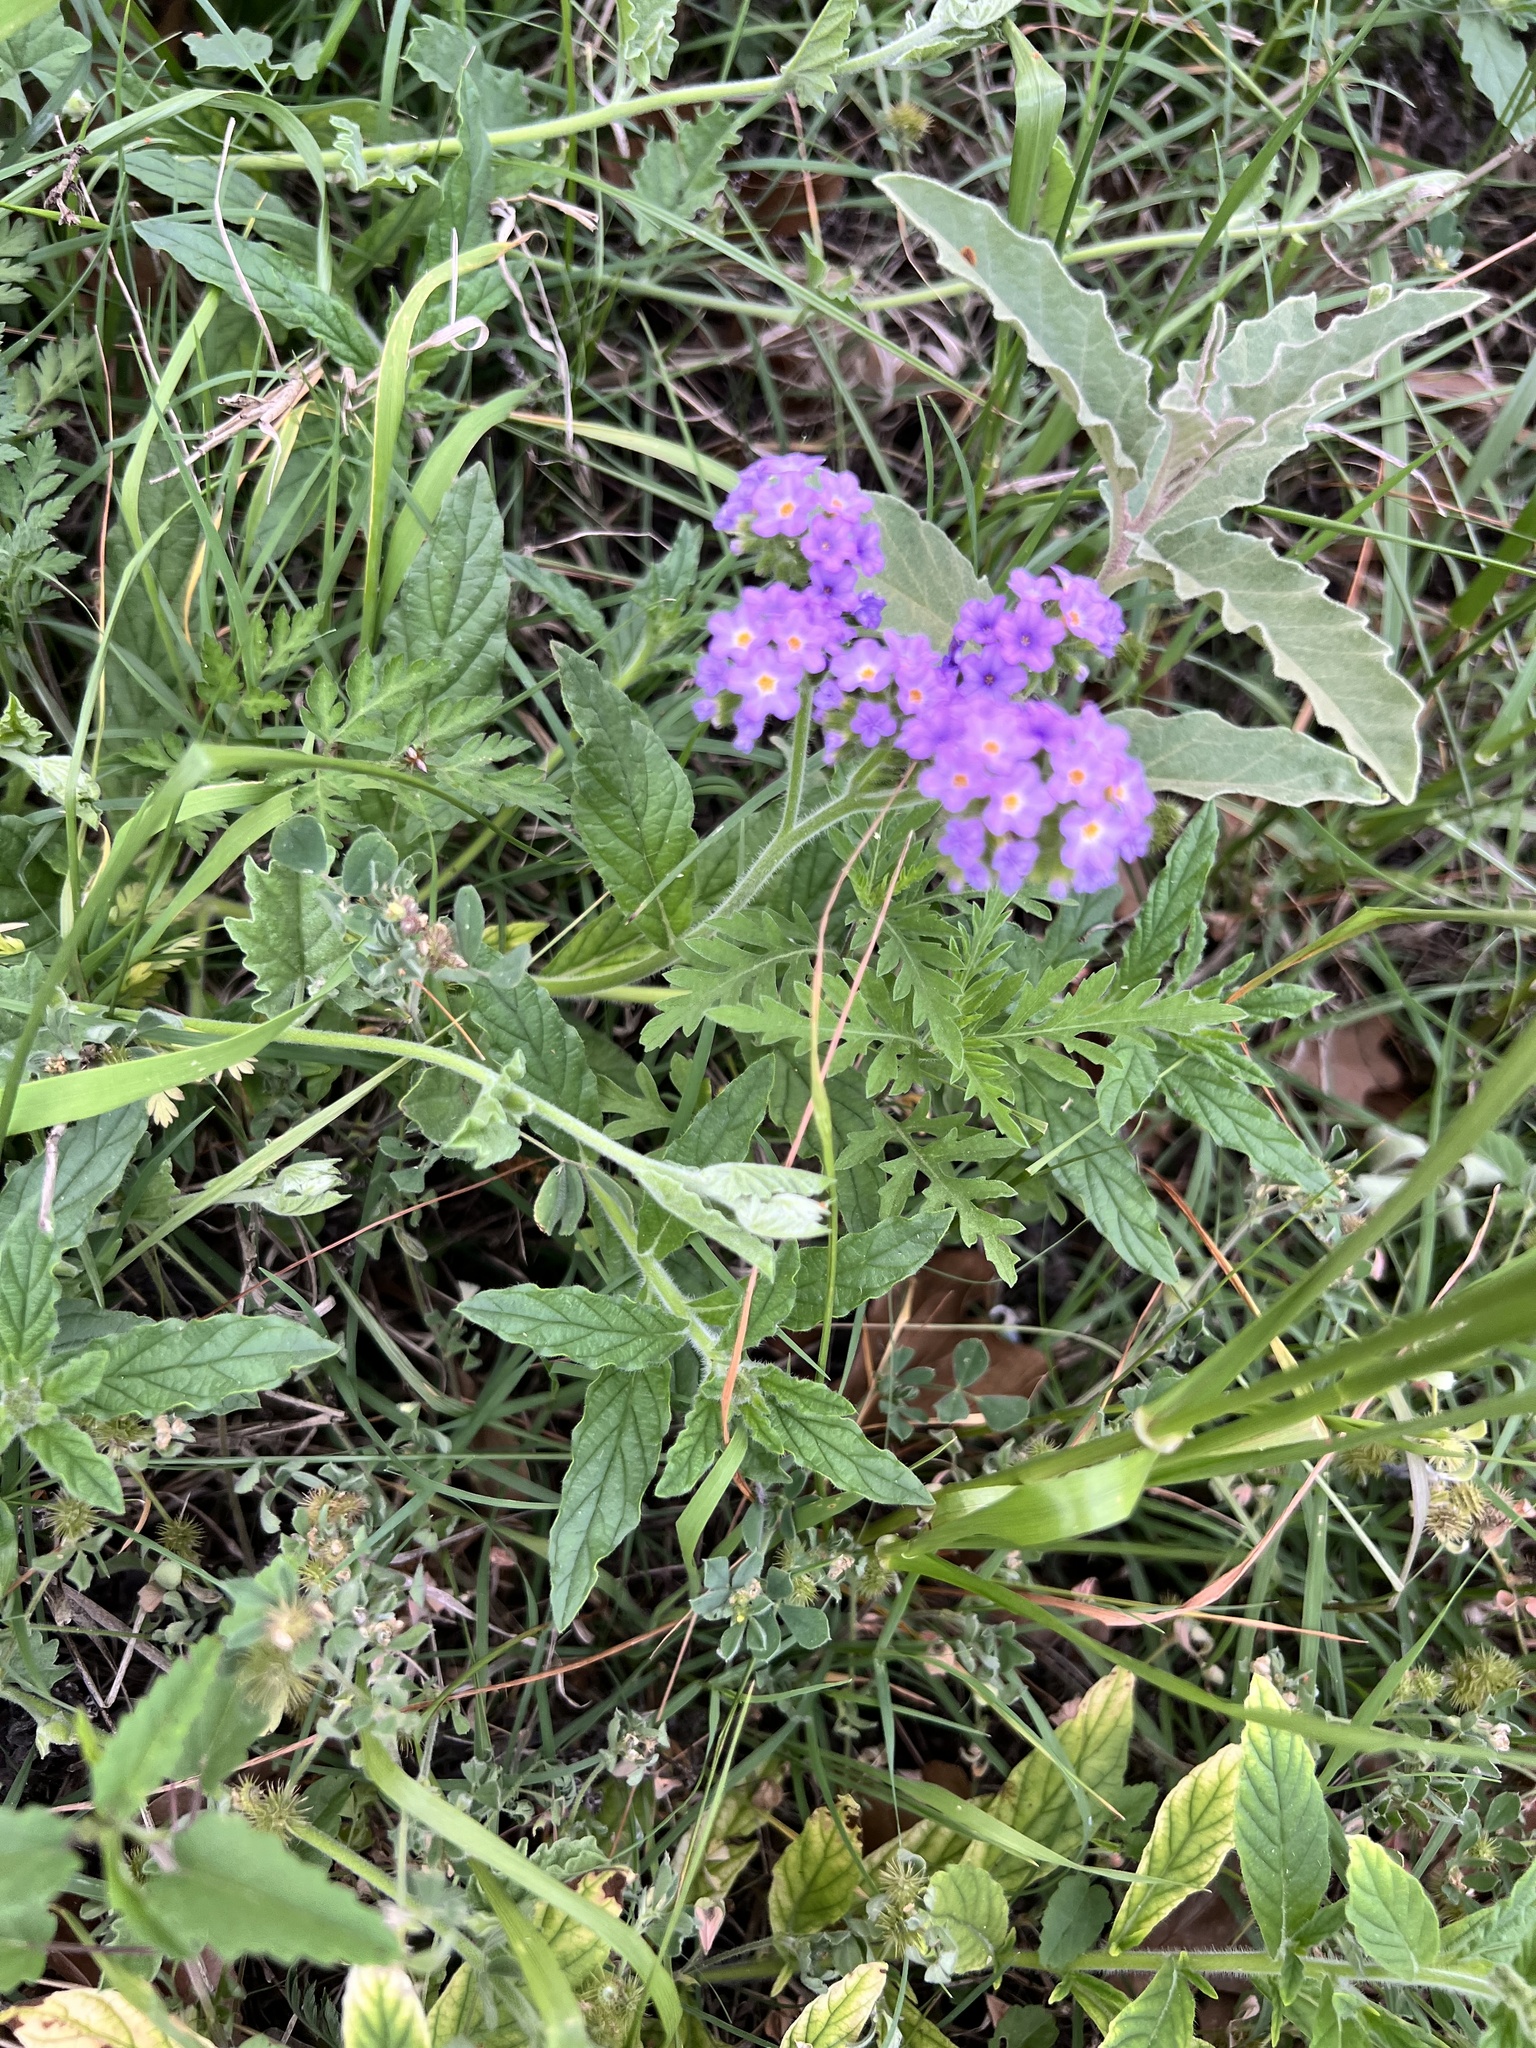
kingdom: Plantae
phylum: Tracheophyta
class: Magnoliopsida
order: Boraginales
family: Heliotropiaceae
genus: Heliotropium
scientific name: Heliotropium amplexicaule
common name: Clasping heliotrope
